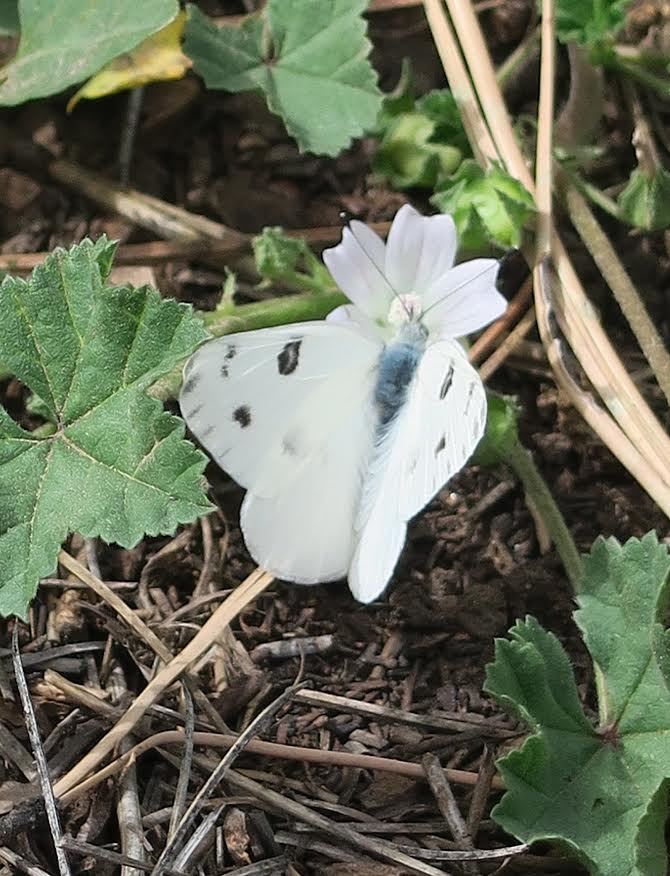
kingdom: Animalia
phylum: Arthropoda
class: Insecta
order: Lepidoptera
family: Pieridae
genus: Pontia
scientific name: Pontia protodice
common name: Checkered white
